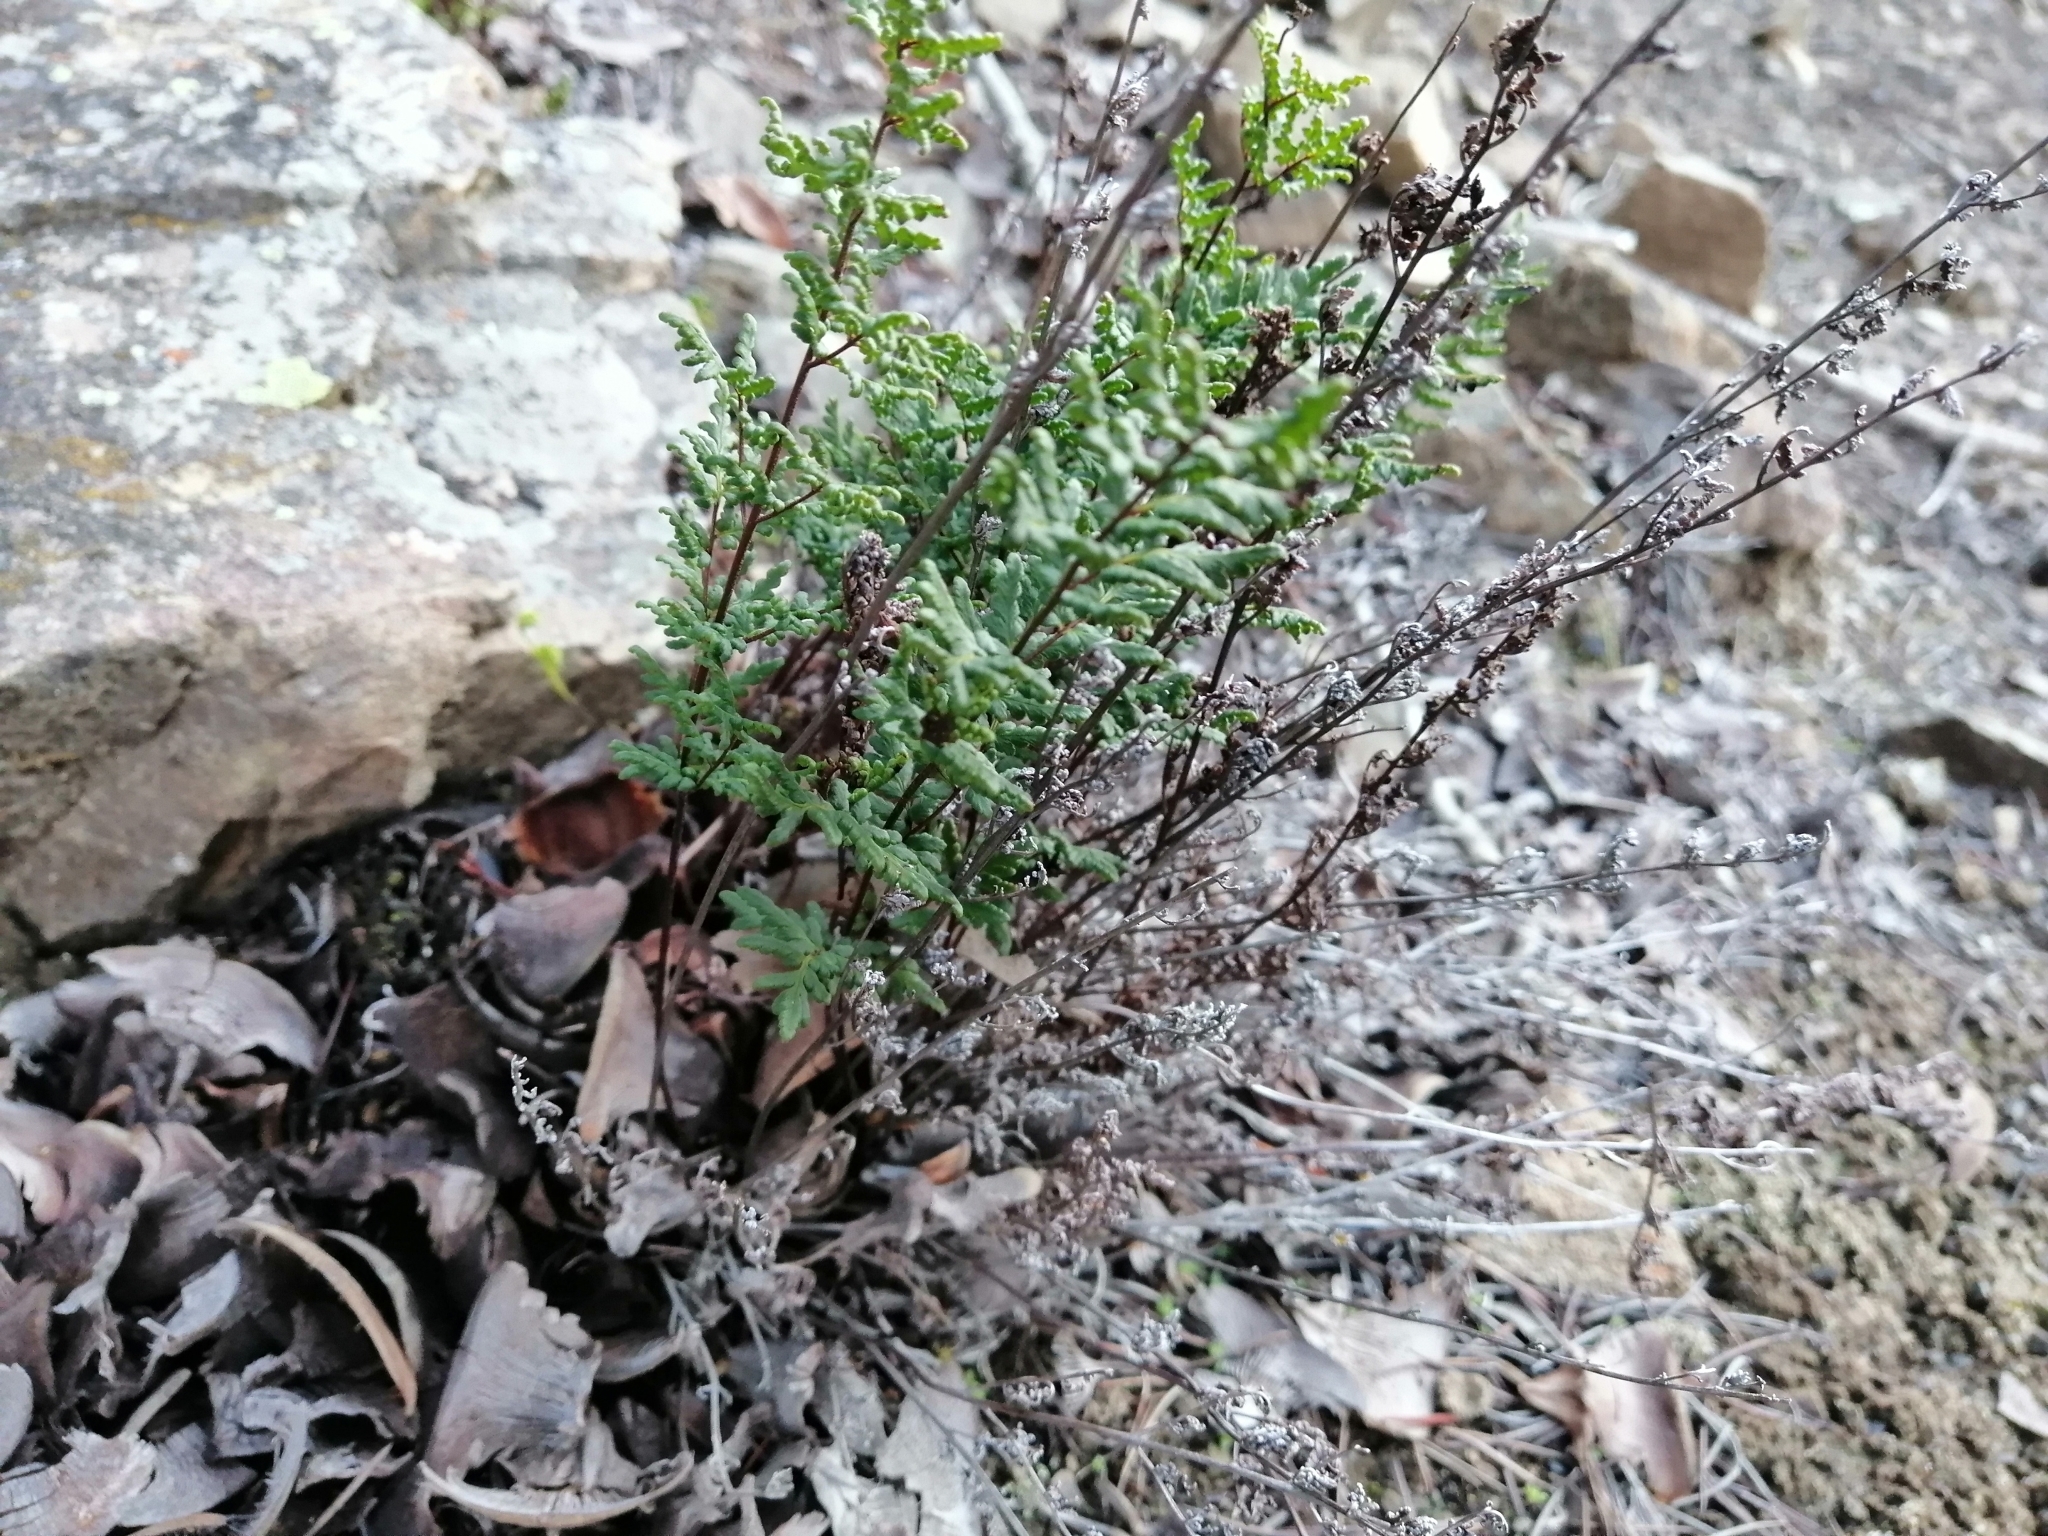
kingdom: Plantae
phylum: Tracheophyta
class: Polypodiopsida
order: Polypodiales
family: Pteridaceae
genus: Cheilanthes
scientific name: Cheilanthes sieberi
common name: Mulga fern
